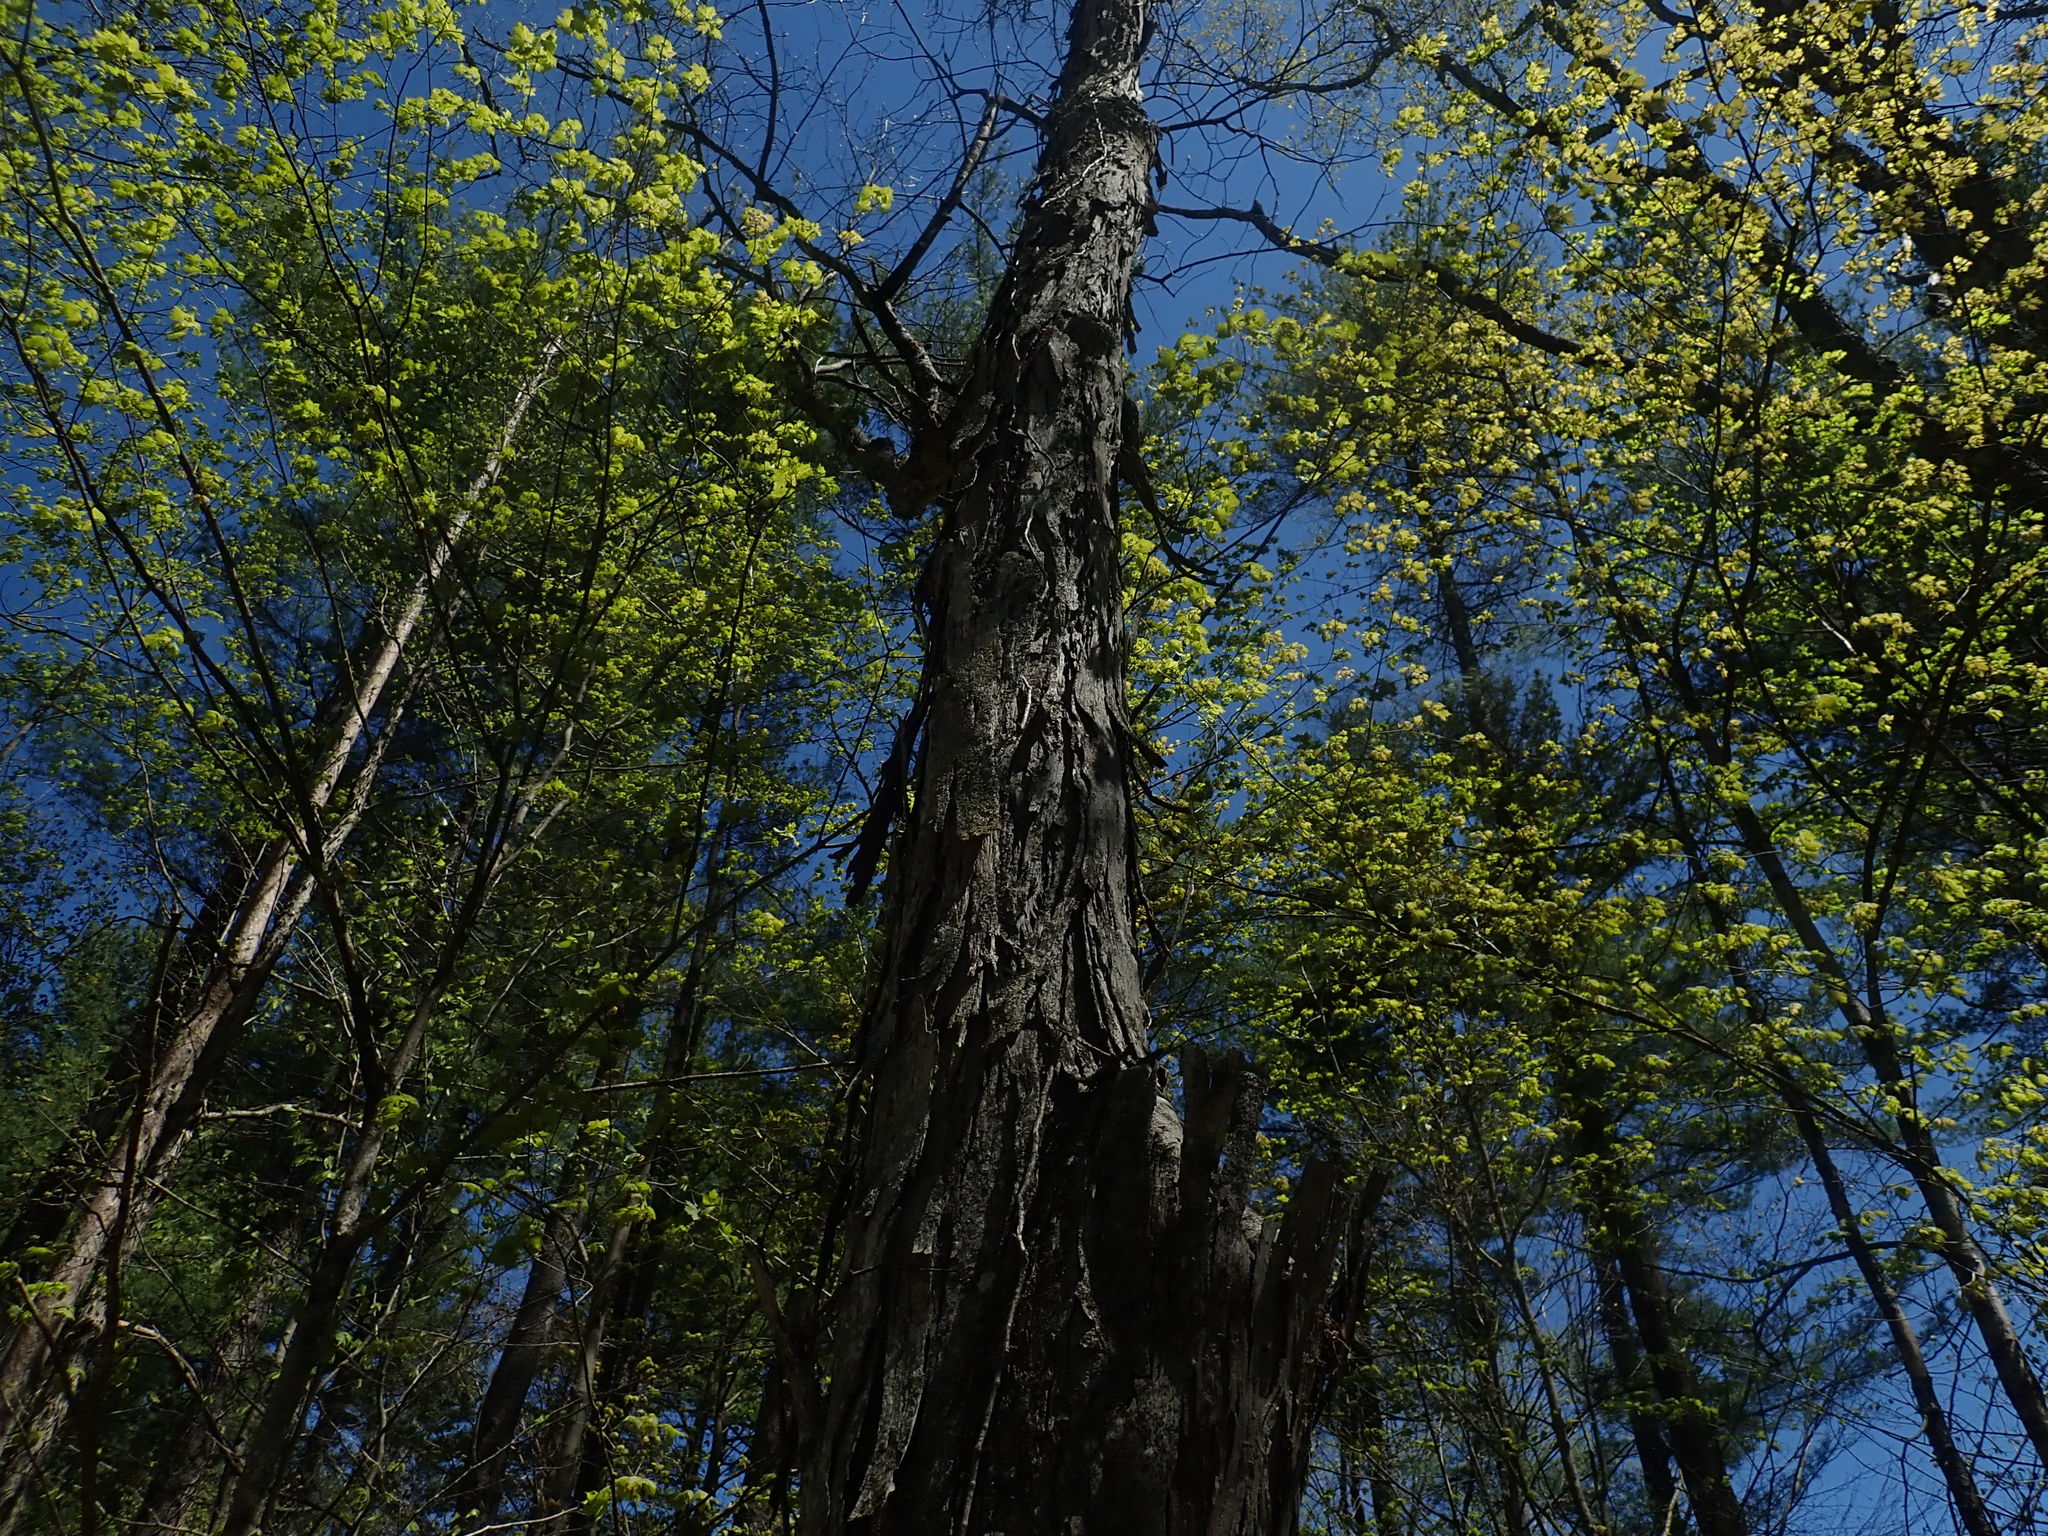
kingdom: Plantae
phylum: Tracheophyta
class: Magnoliopsida
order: Fagales
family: Juglandaceae
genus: Carya
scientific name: Carya ovata
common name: Shagbark hickory
